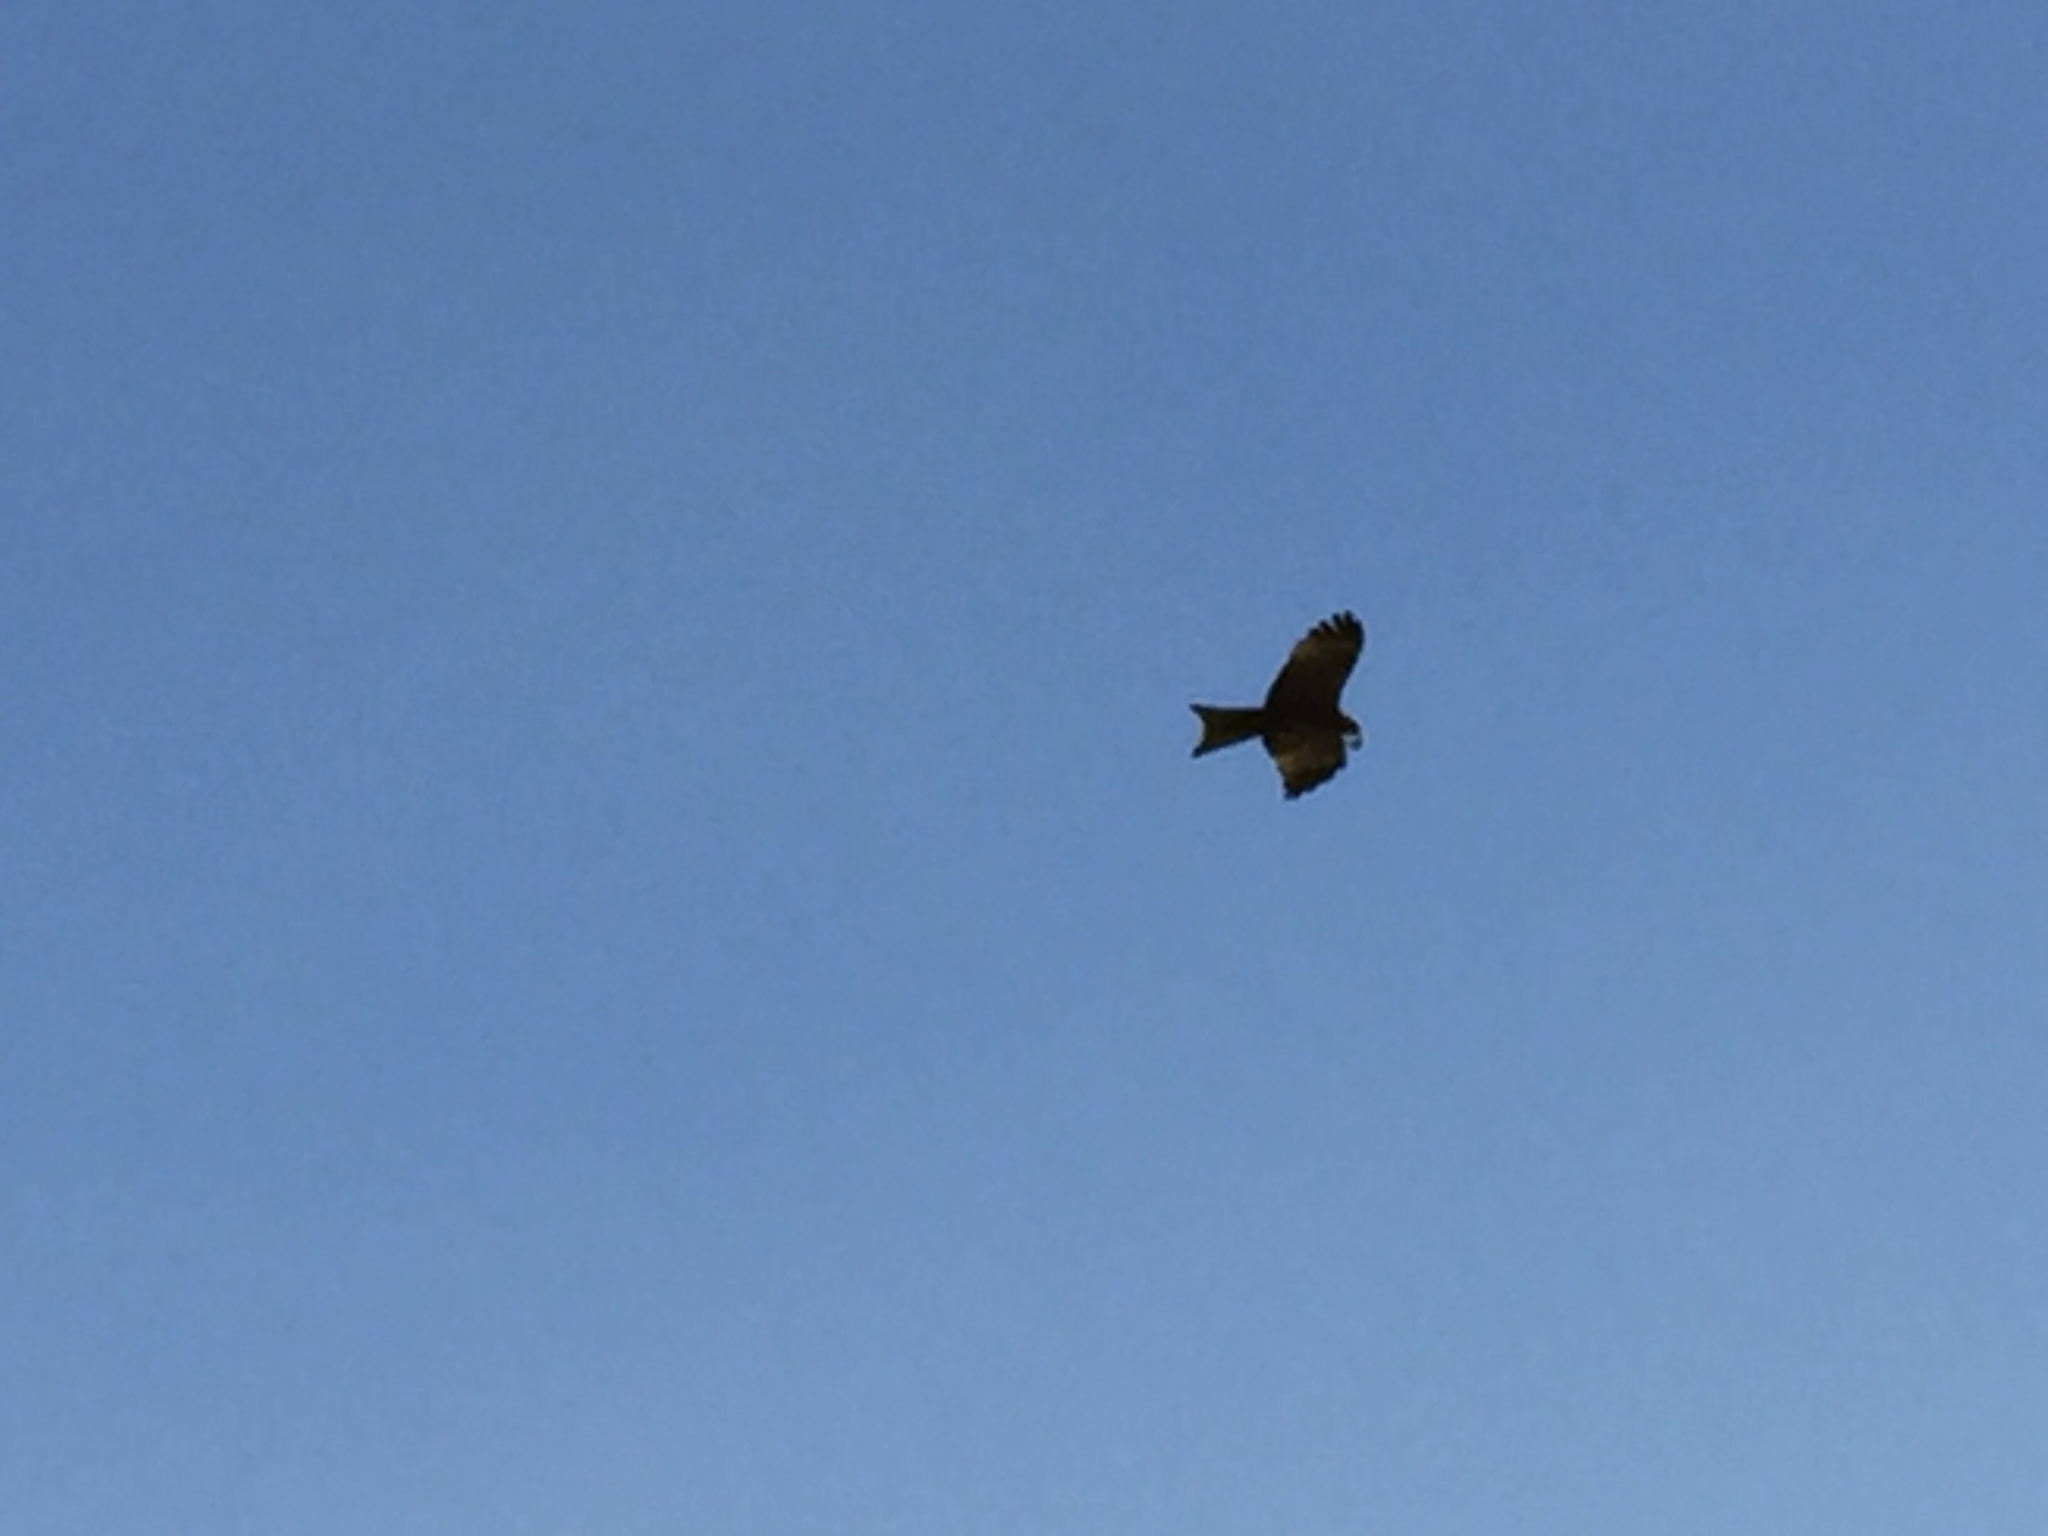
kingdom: Animalia
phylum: Chordata
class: Aves
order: Accipitriformes
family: Accipitridae
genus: Milvus
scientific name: Milvus migrans
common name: Black kite
